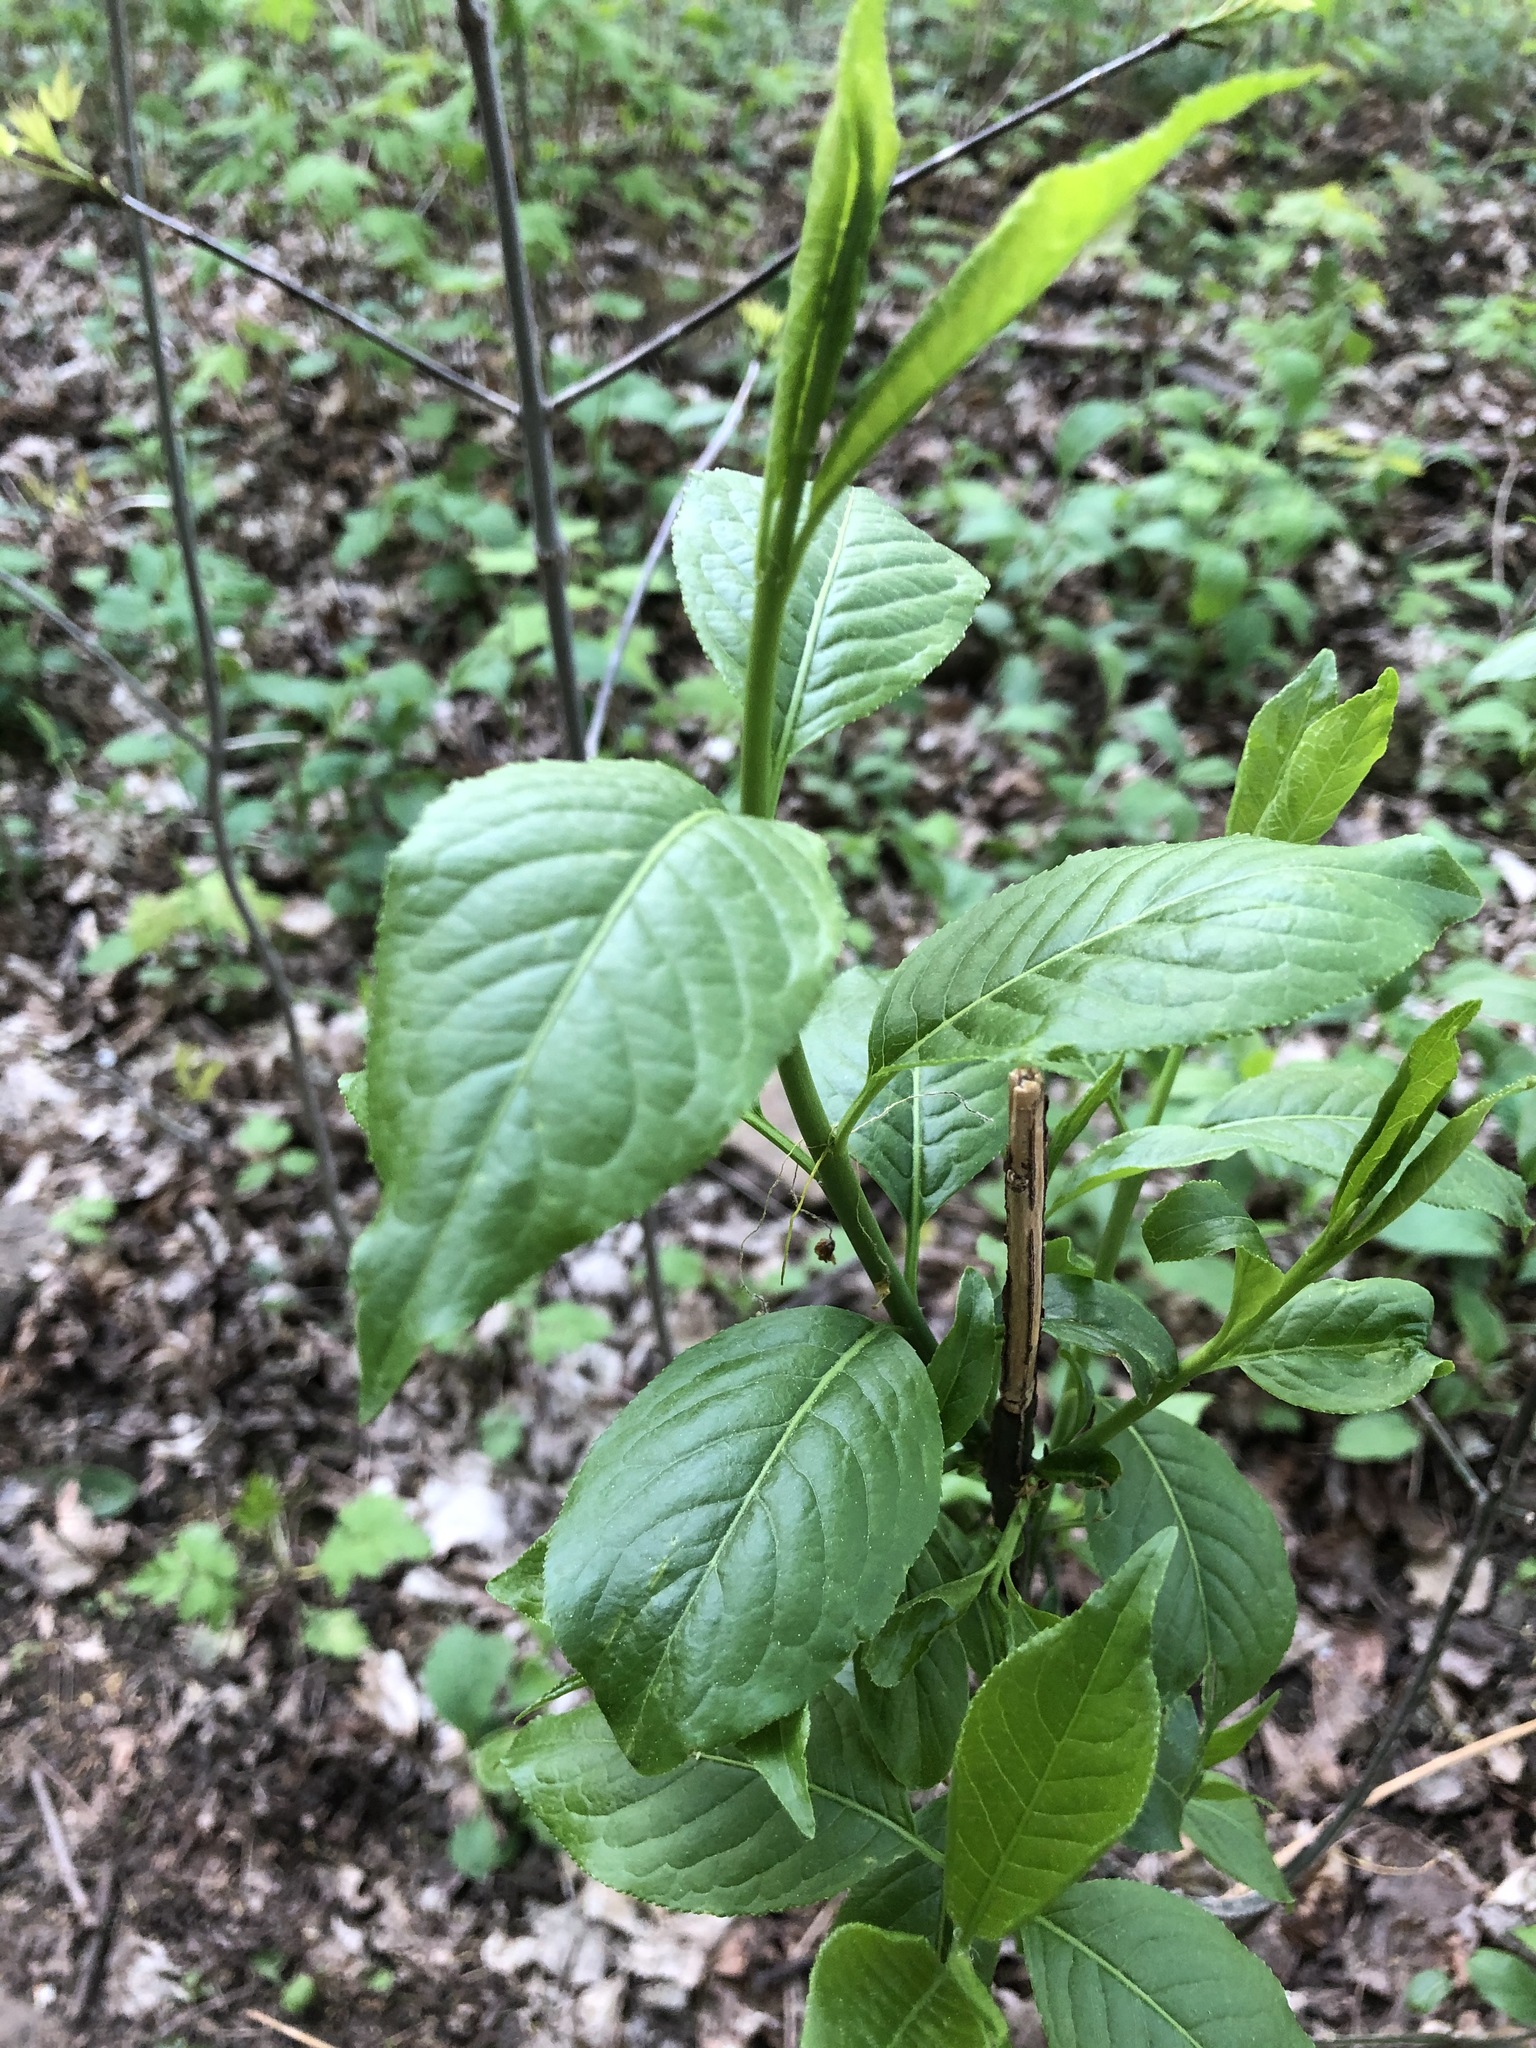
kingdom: Plantae
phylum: Tracheophyta
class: Magnoliopsida
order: Celastrales
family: Celastraceae
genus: Euonymus
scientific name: Euonymus alatus
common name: Winged euonymus
